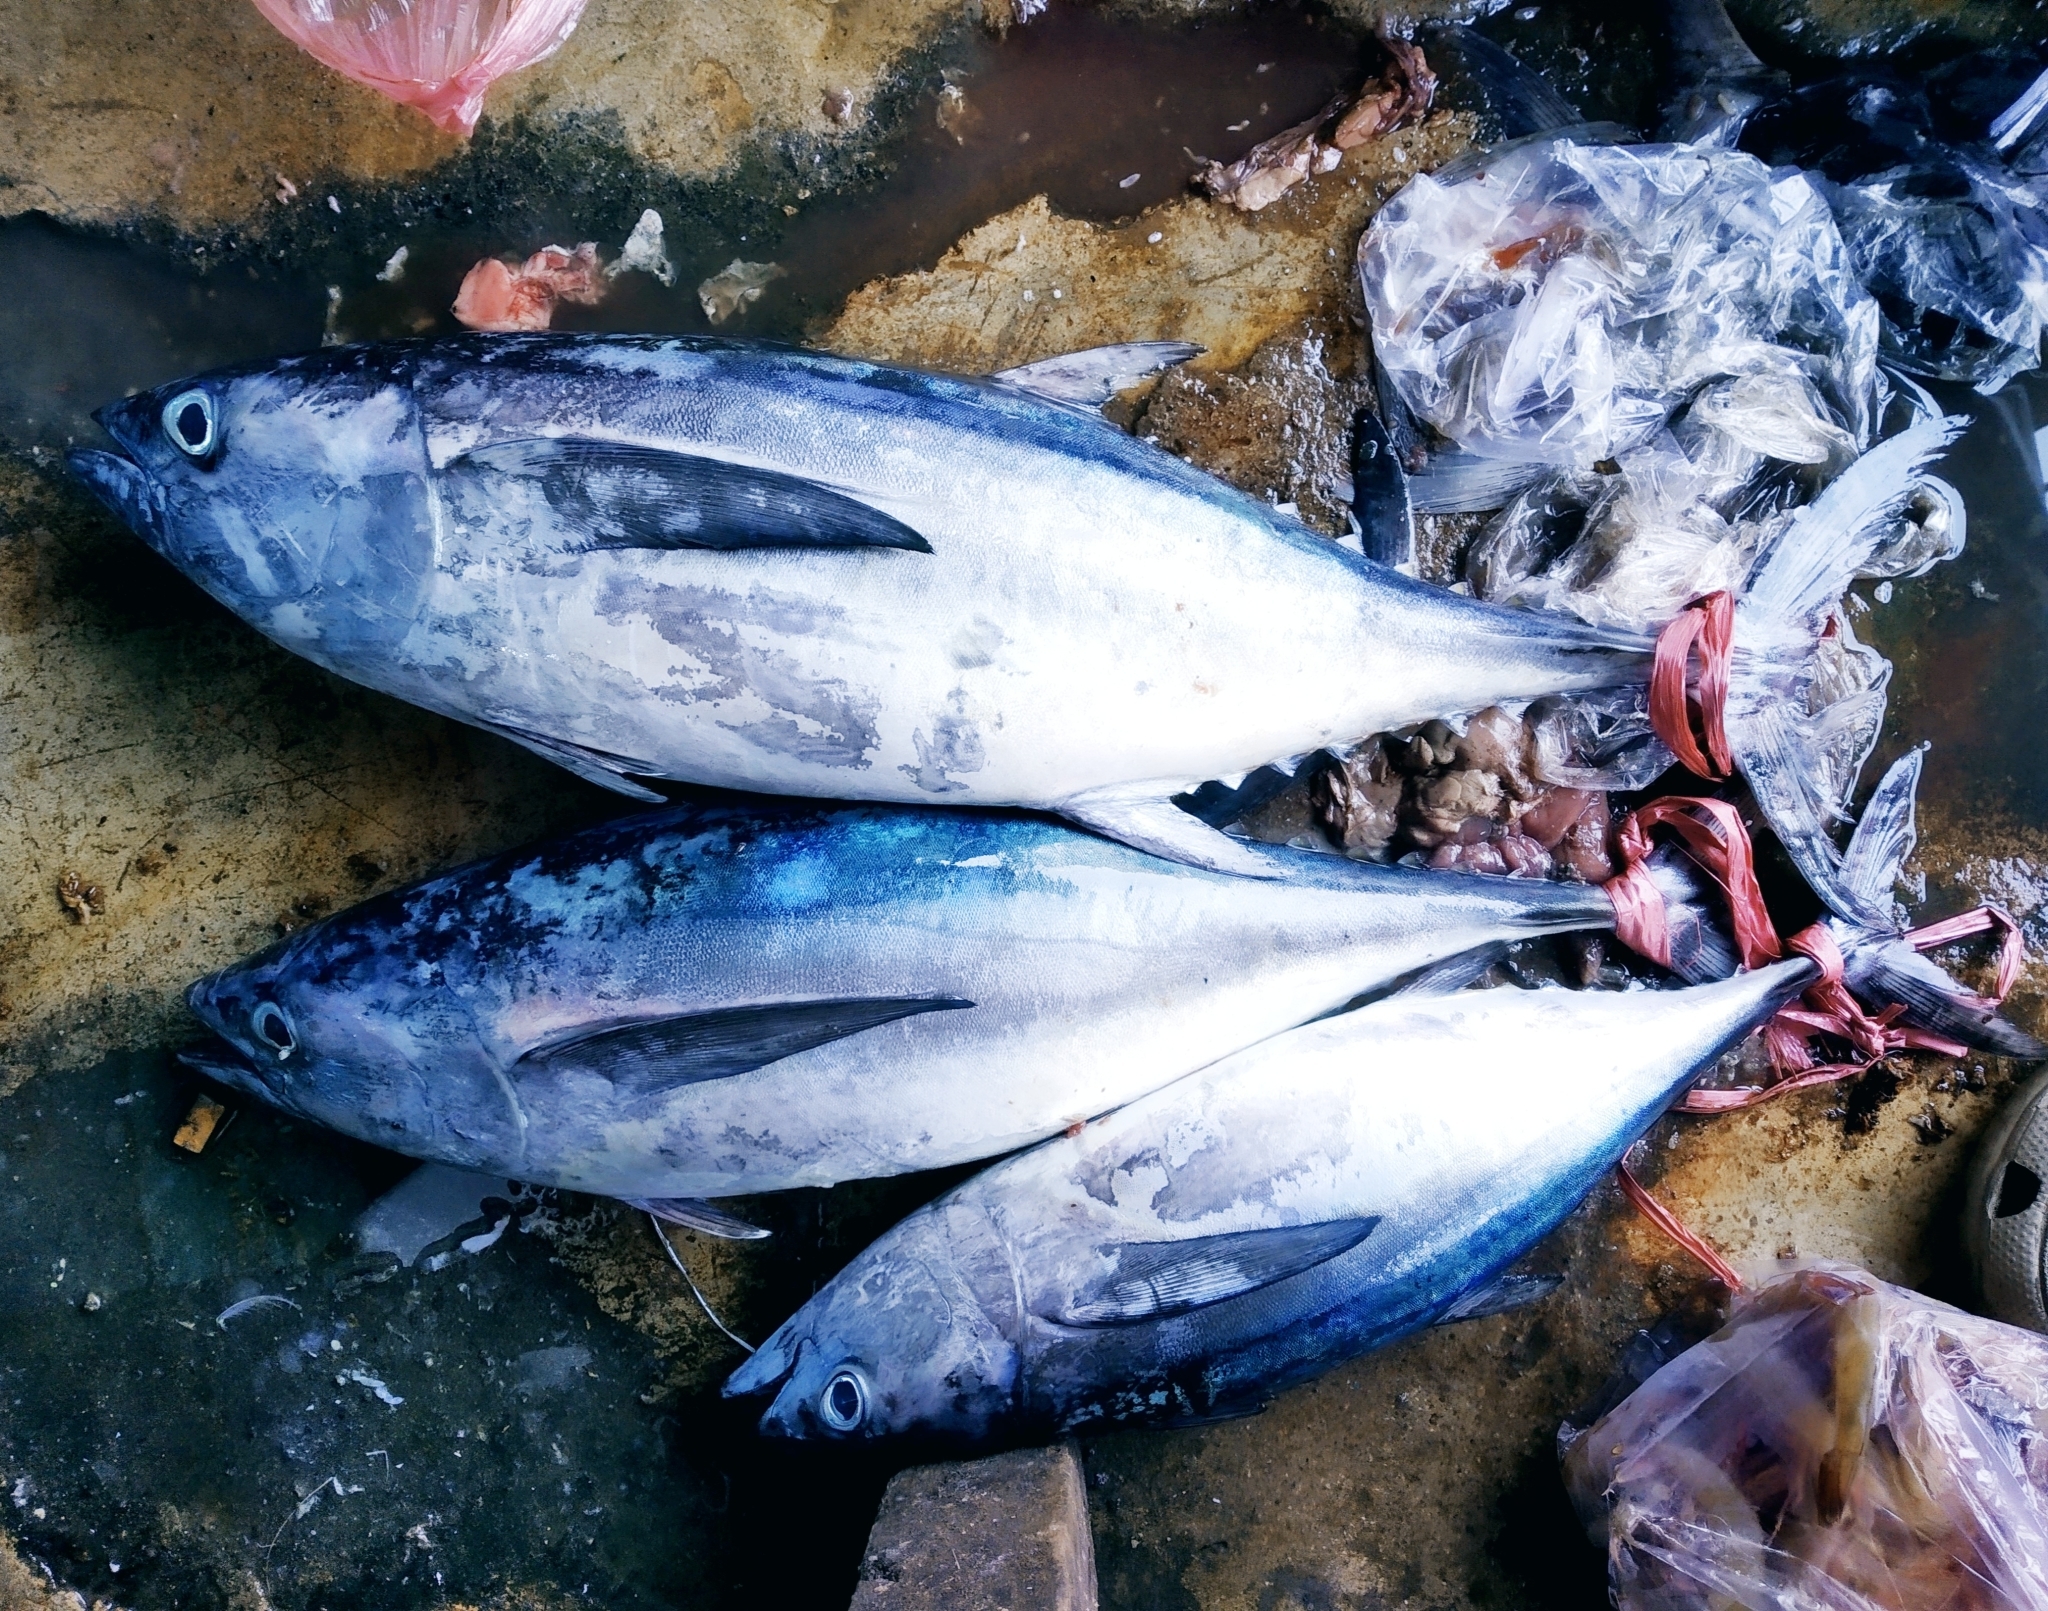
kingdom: Animalia
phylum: Chordata
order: Perciformes
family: Scombridae
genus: Thunnus
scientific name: Thunnus obesus
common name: Bigeye tuna
